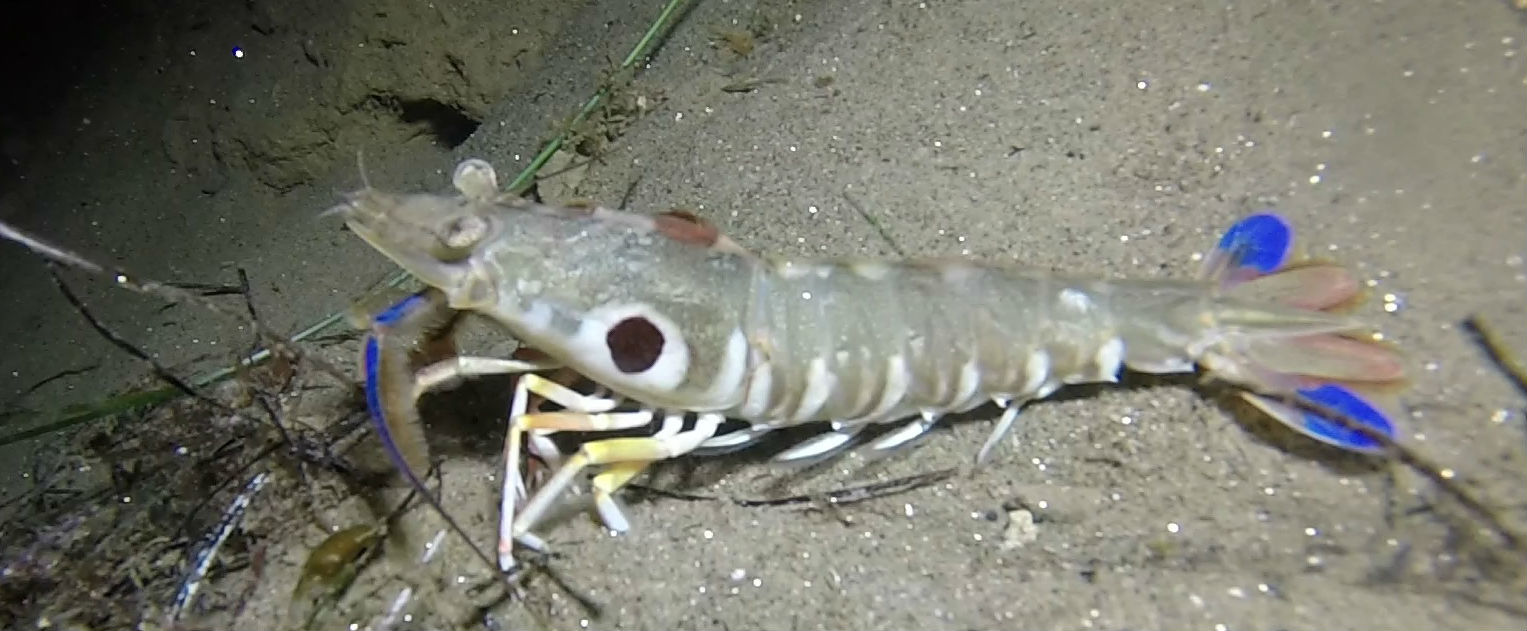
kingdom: Animalia
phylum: Arthropoda
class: Malacostraca
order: Decapoda
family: Sicyoniidae
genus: Sicyonia
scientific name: Sicyonia penicillata
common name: Japanese shrimp
